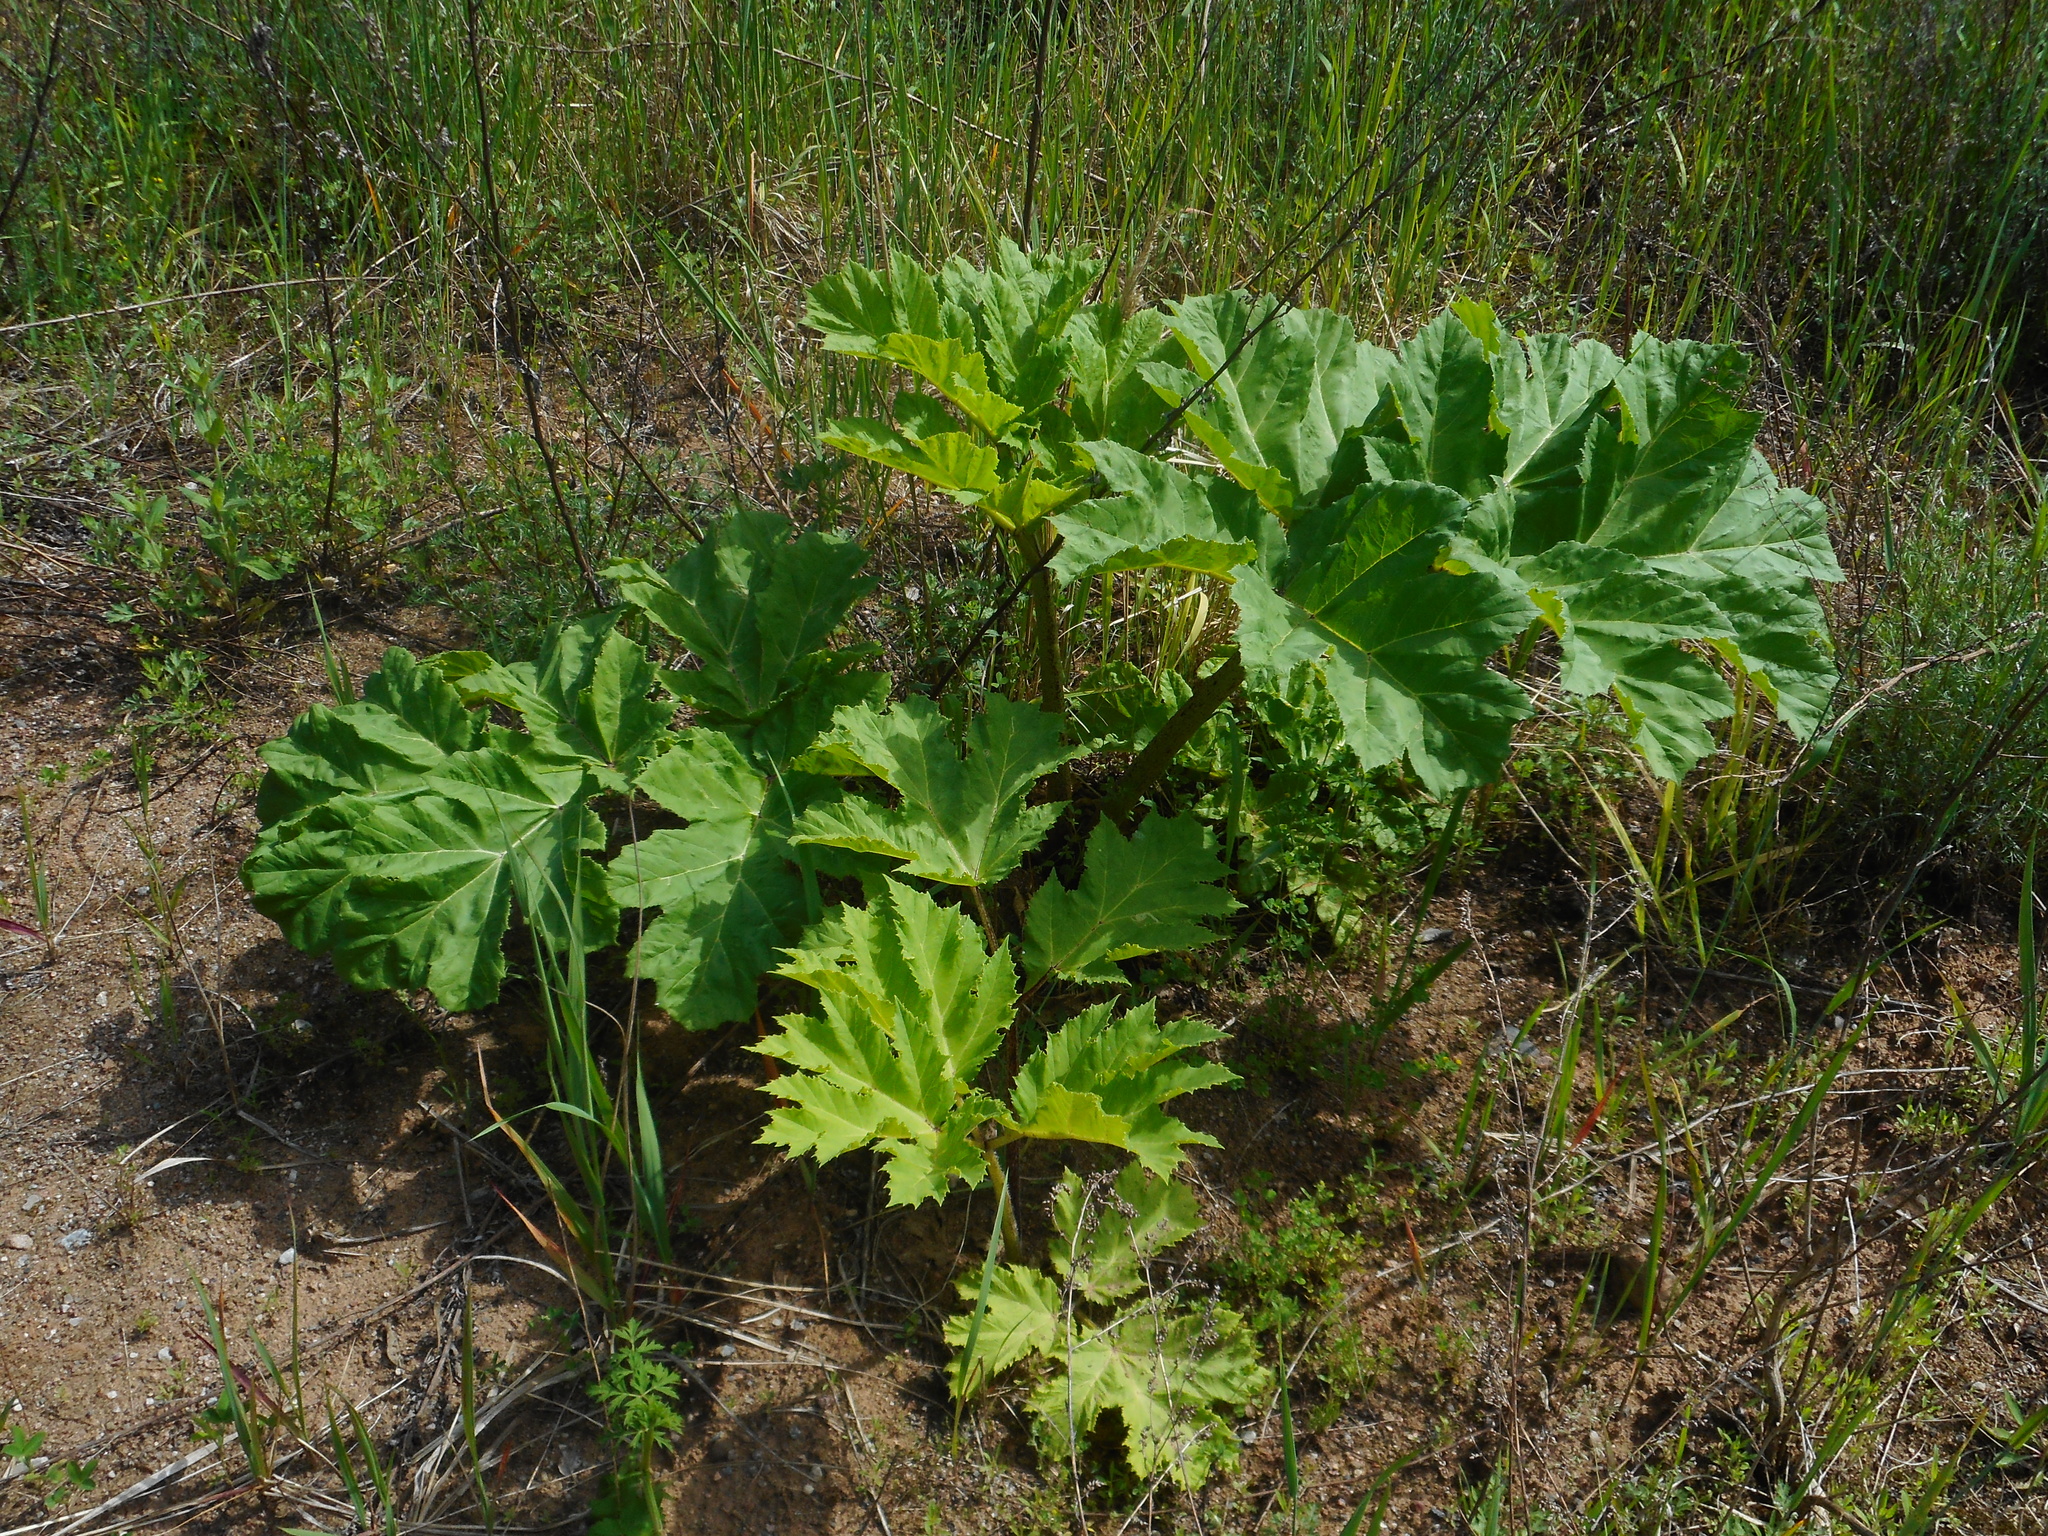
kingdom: Plantae
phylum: Tracheophyta
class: Magnoliopsida
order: Apiales
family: Apiaceae
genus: Heracleum
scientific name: Heracleum sosnowskyi
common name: Sosnowsky's hogweed
